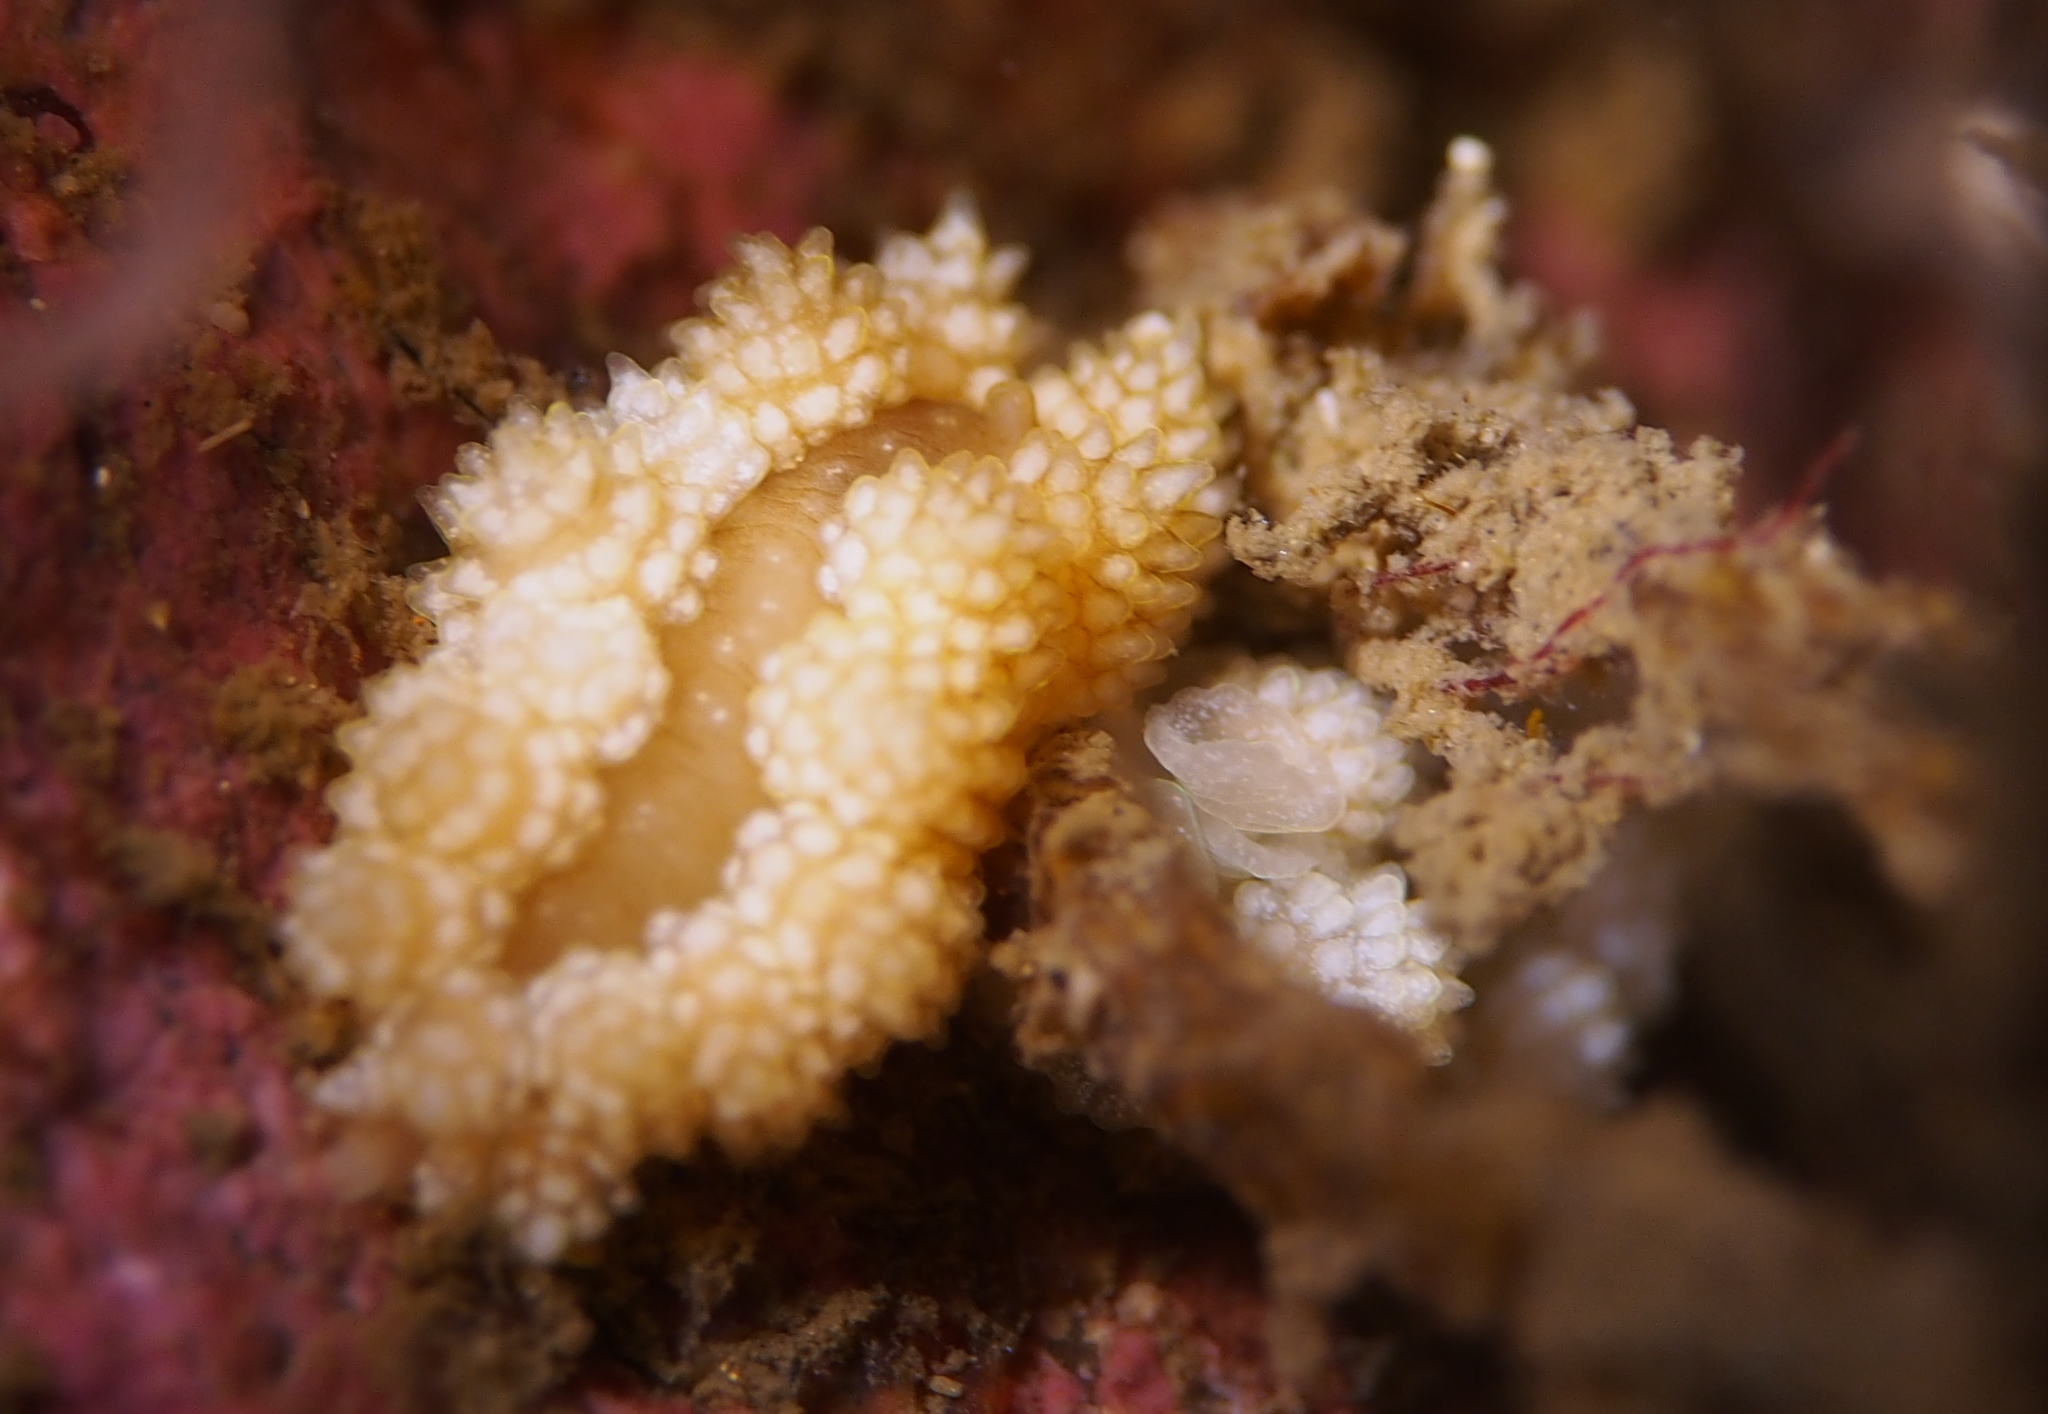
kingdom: Animalia
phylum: Mollusca
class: Gastropoda
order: Nudibranchia
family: Dotidae
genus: Doto
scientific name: Doto fragilis
